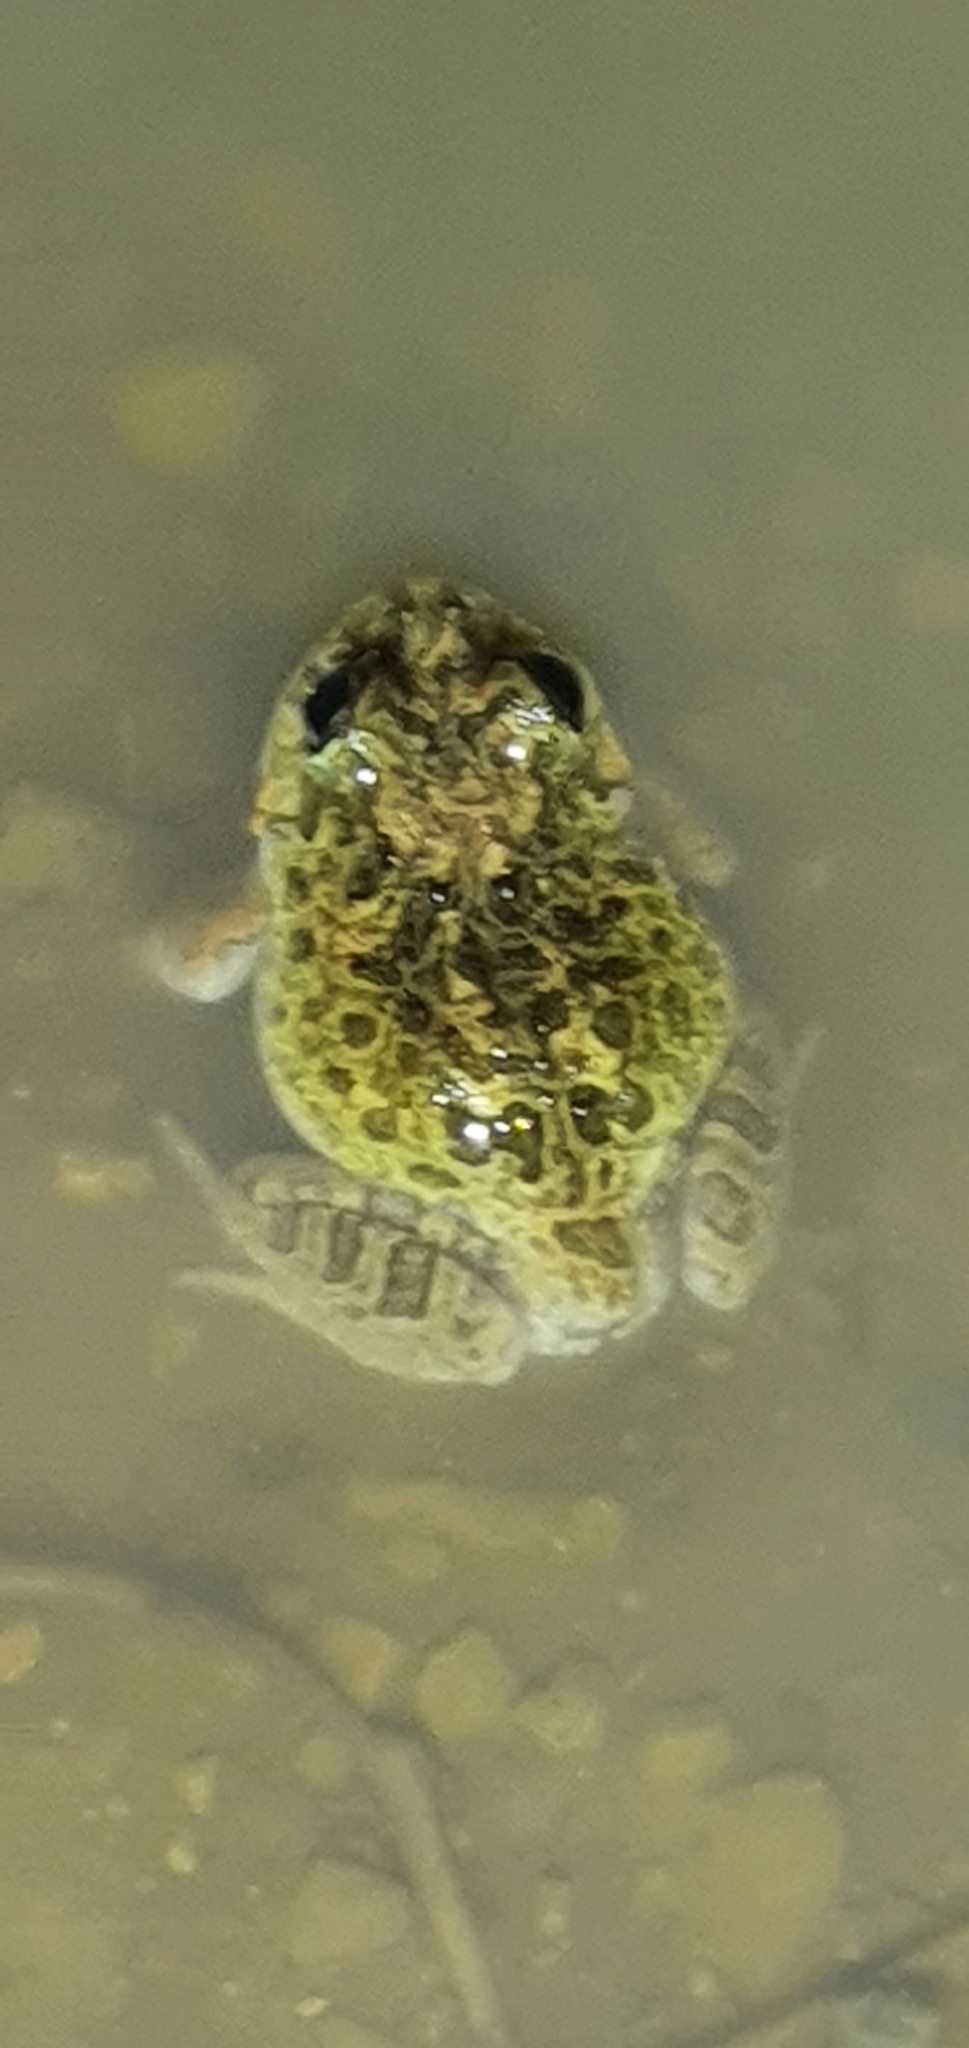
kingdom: Animalia
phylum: Chordata
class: Amphibia
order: Anura
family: Limnodynastidae
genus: Platyplectrum
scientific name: Platyplectrum ornatum
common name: Ornate burrowing frog
